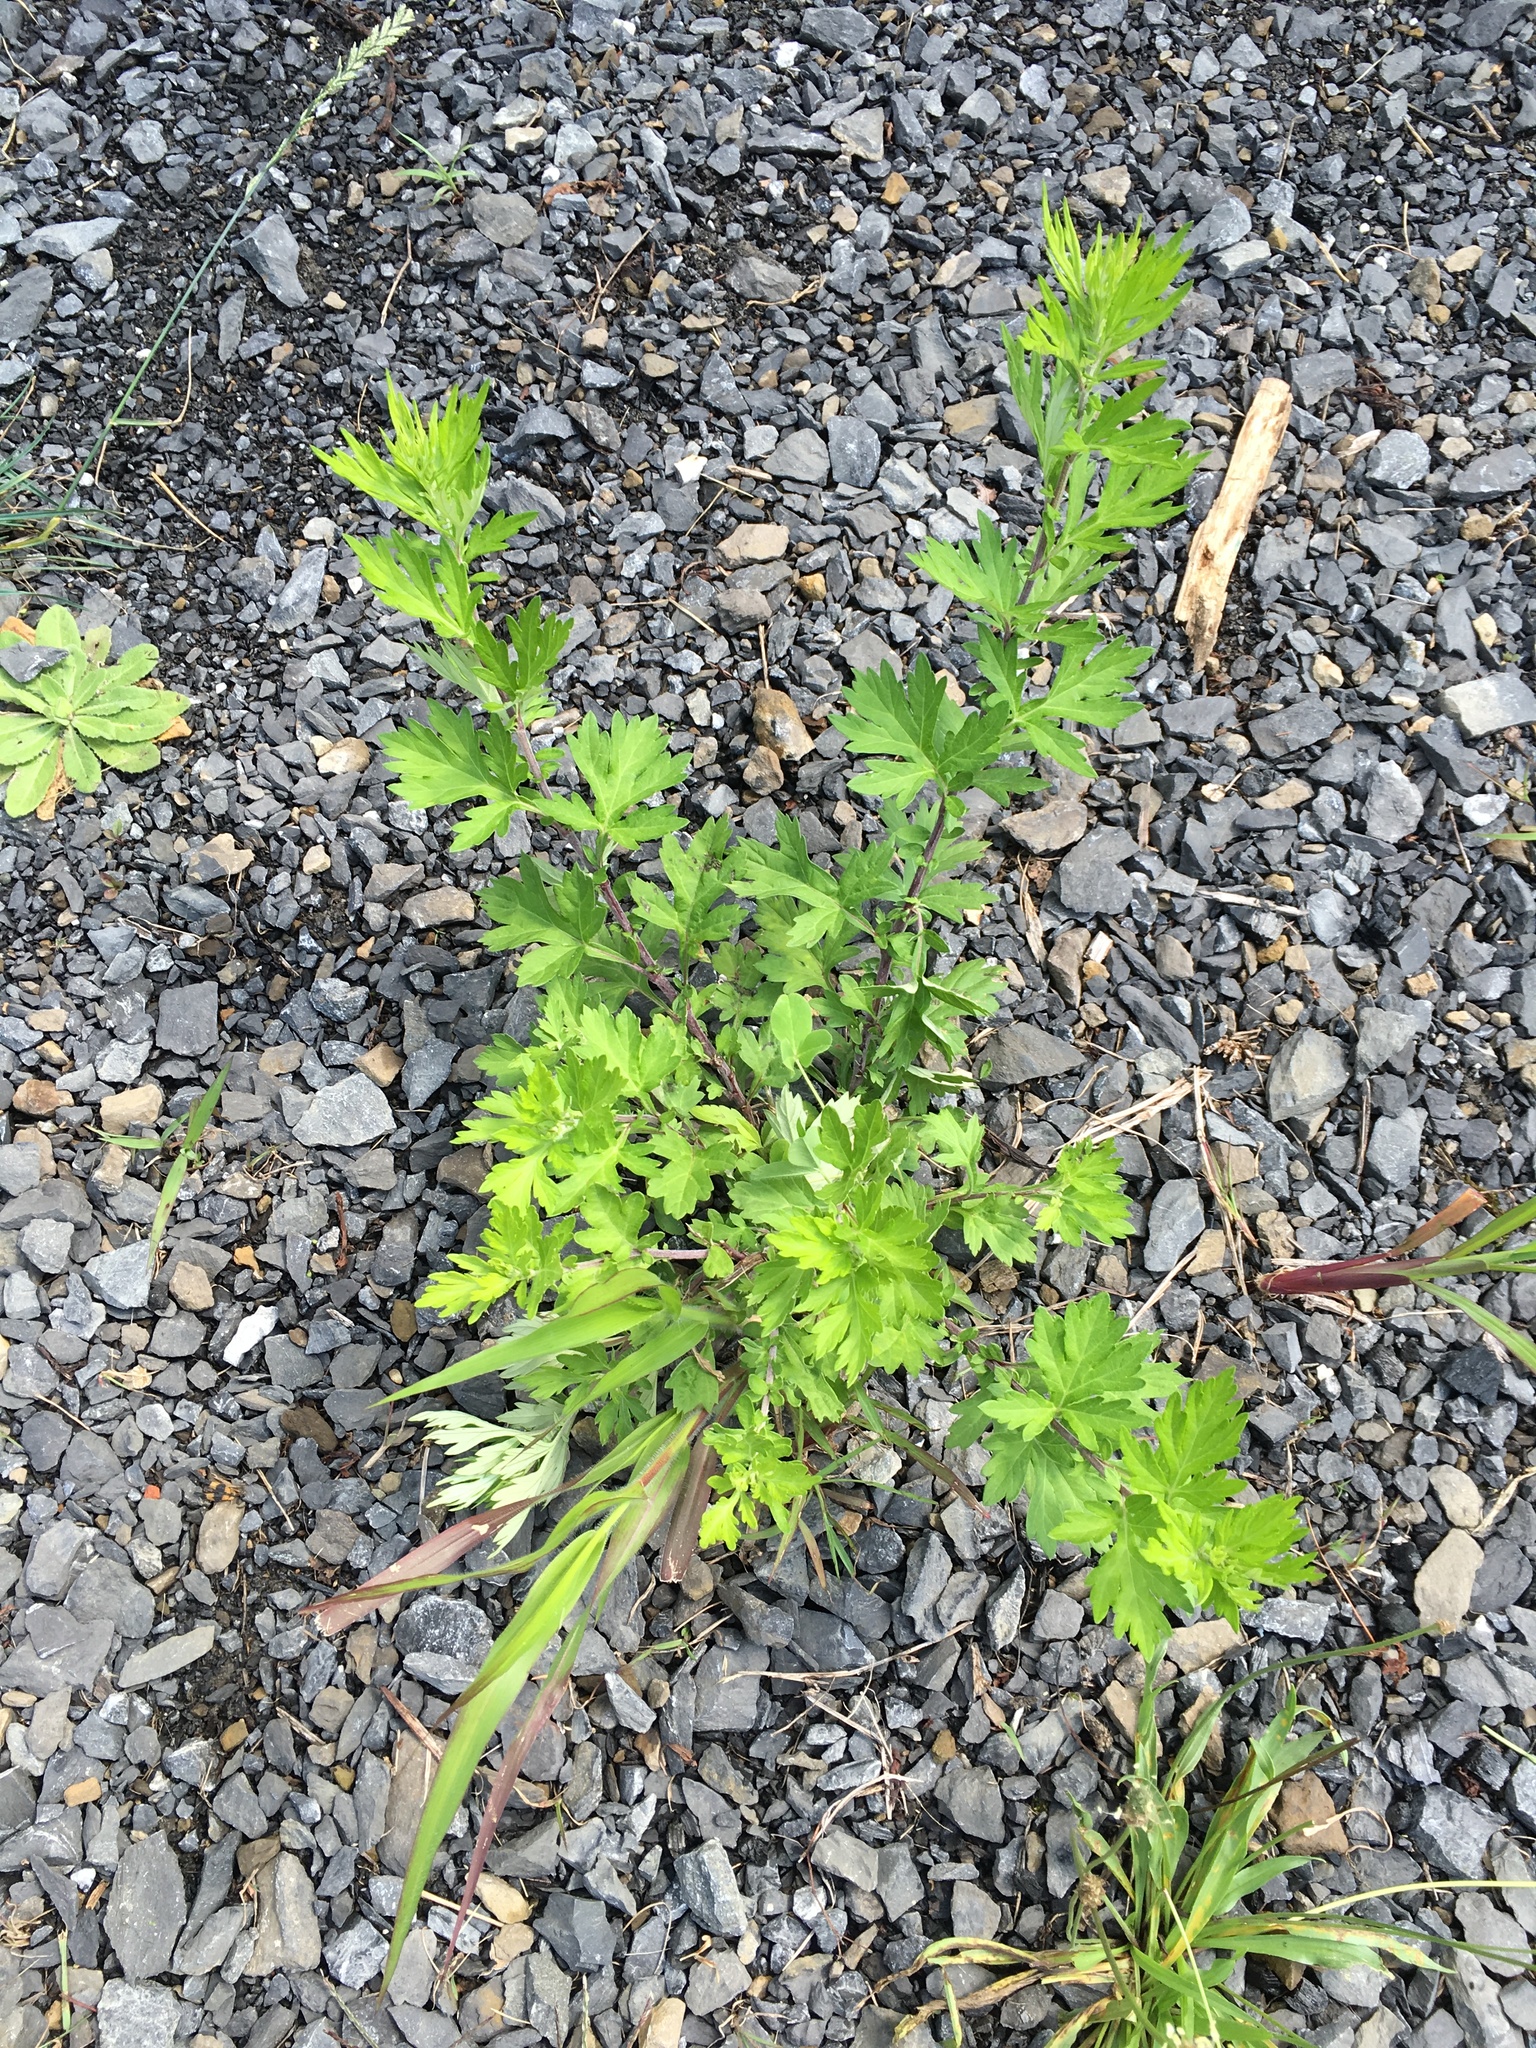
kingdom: Plantae
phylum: Tracheophyta
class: Magnoliopsida
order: Asterales
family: Asteraceae
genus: Artemisia
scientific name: Artemisia vulgaris
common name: Mugwort
